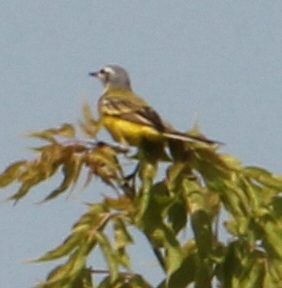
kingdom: Animalia
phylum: Chordata
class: Aves
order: Passeriformes
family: Motacillidae
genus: Motacilla
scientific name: Motacilla flava
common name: Western yellow wagtail
